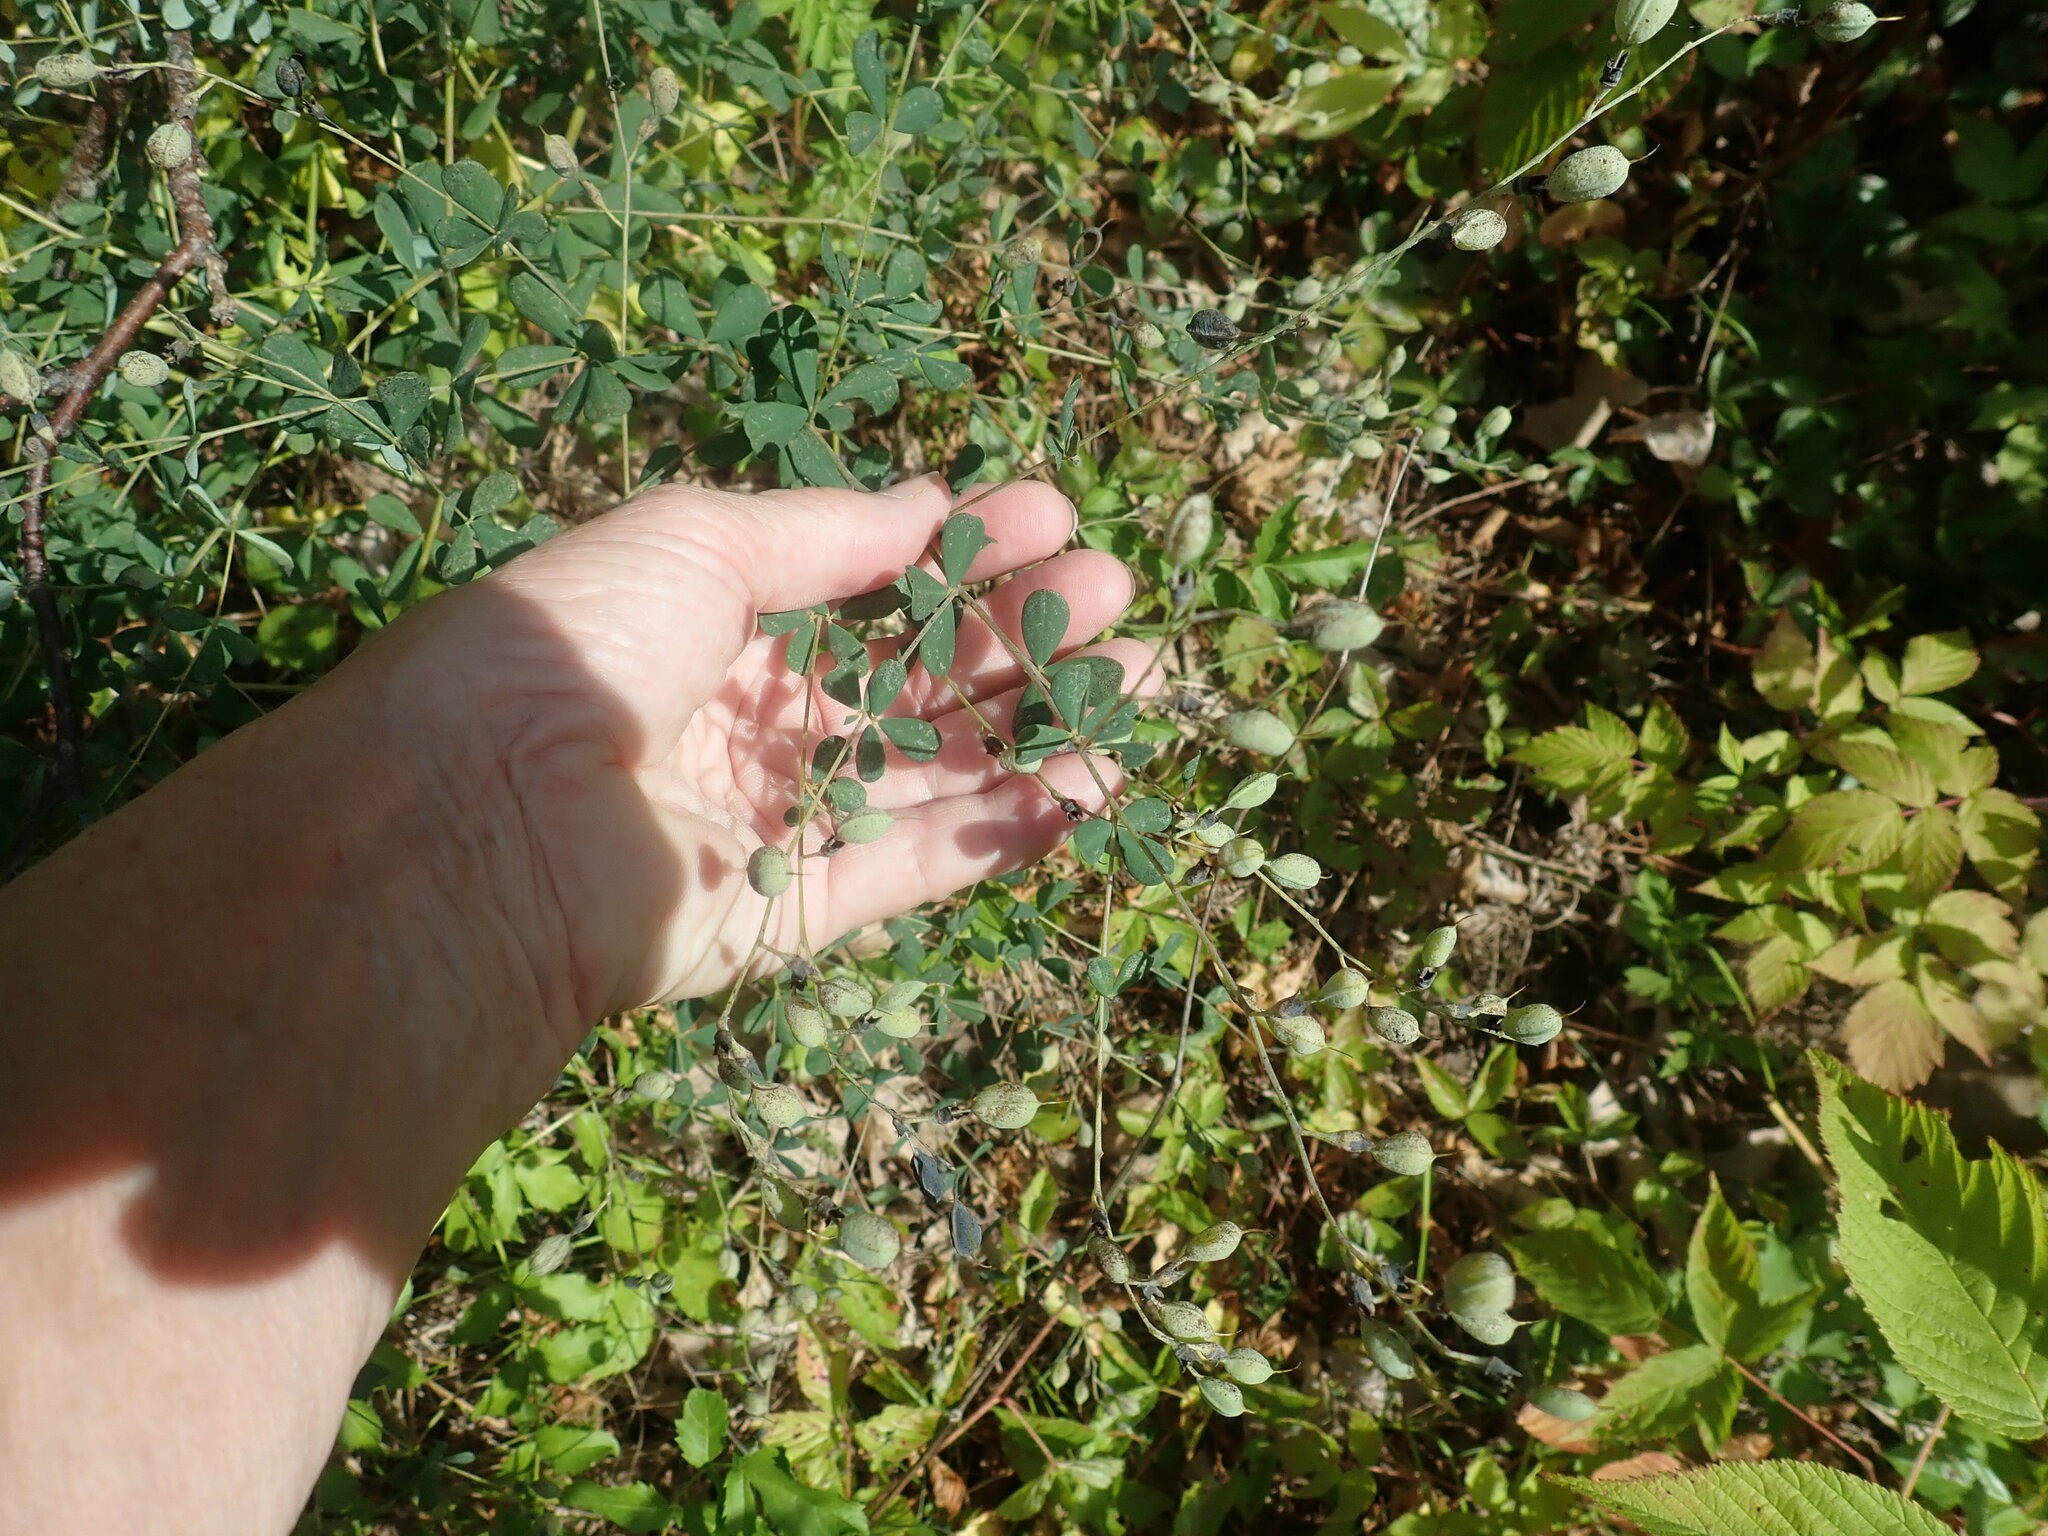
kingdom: Plantae
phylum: Tracheophyta
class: Magnoliopsida
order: Fabales
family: Fabaceae
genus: Baptisia
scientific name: Baptisia tinctoria
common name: Wild indigo
